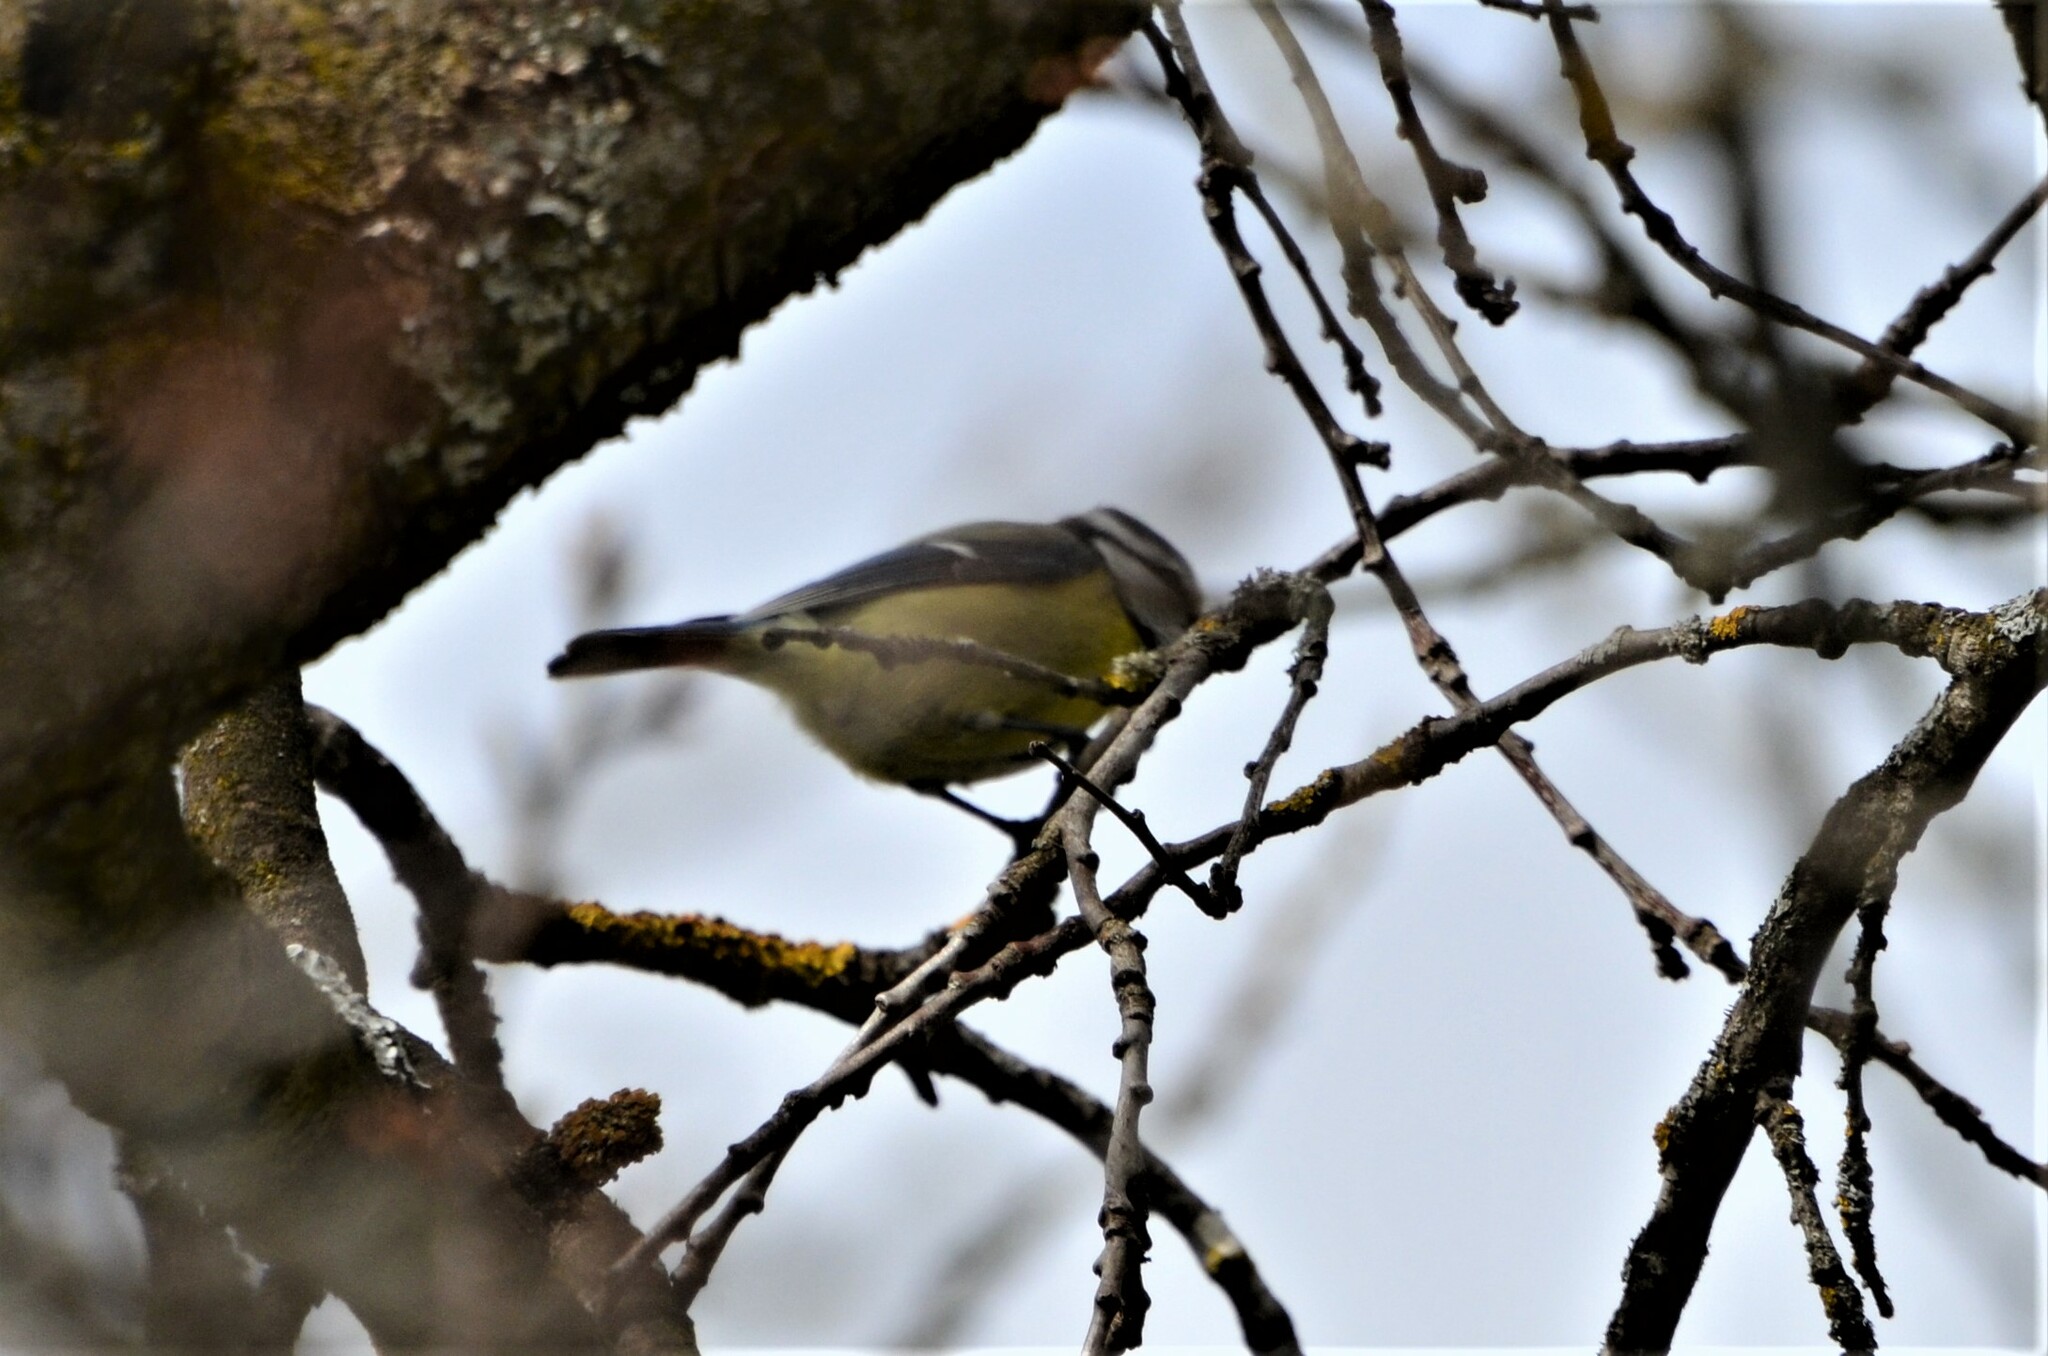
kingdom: Animalia
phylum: Chordata
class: Aves
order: Passeriformes
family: Paridae
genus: Cyanistes
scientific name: Cyanistes caeruleus
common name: Eurasian blue tit
